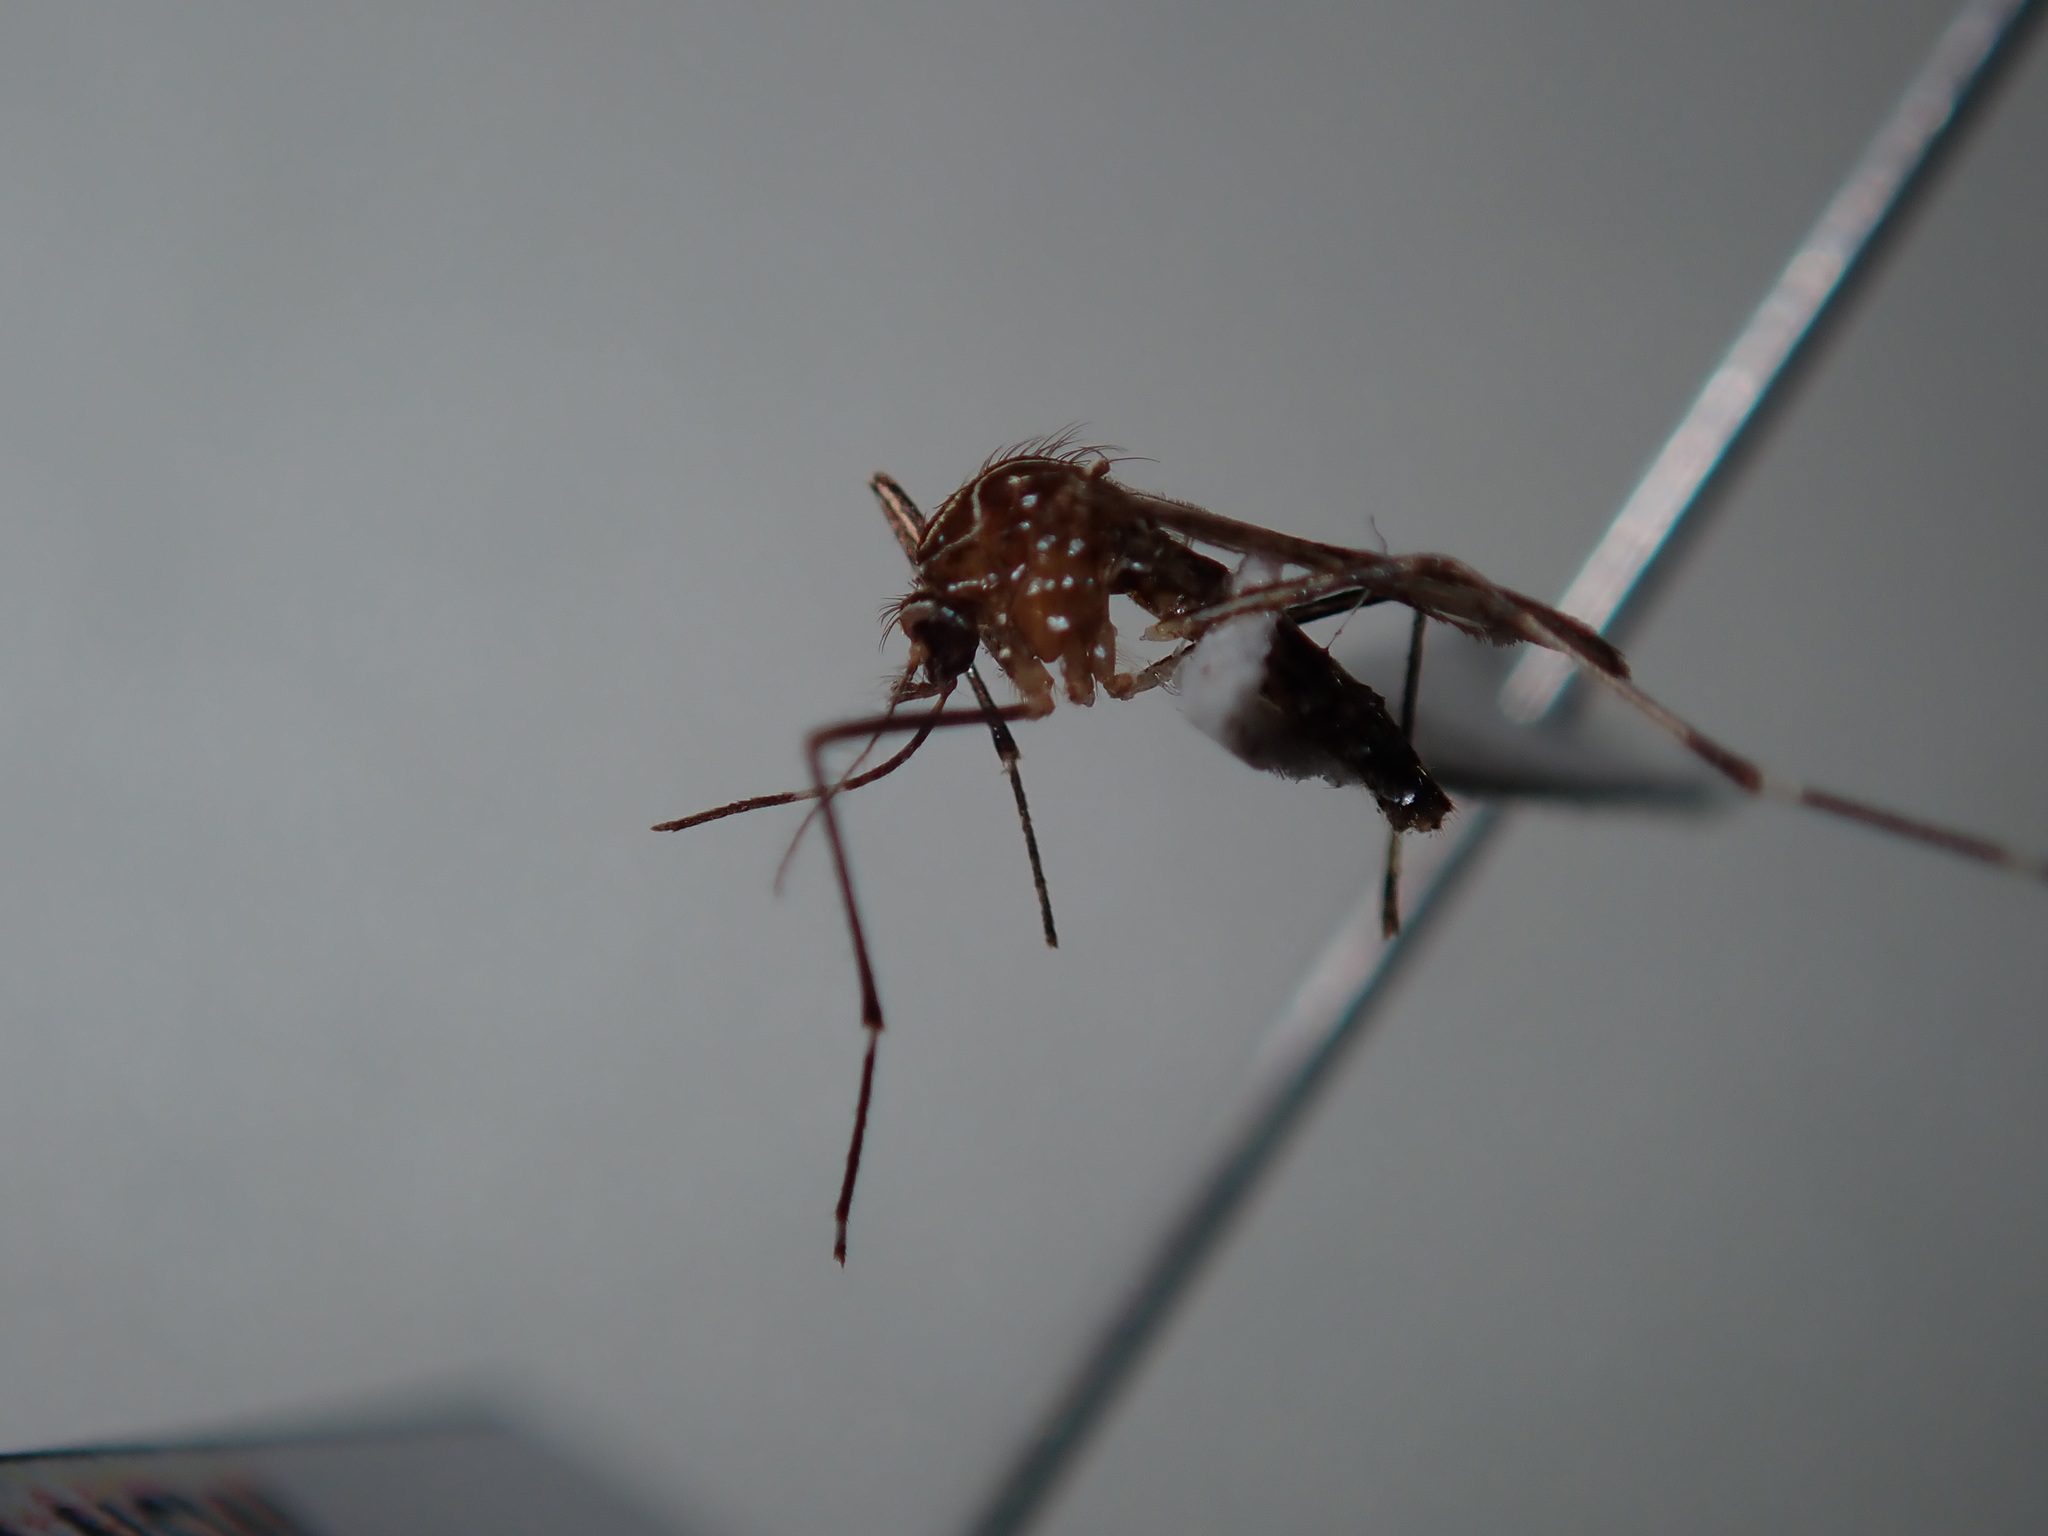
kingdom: Animalia
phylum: Arthropoda
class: Insecta
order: Diptera
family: Culicidae
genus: Aedes
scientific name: Aedes notoscriptus
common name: Australian backyard mosquito
